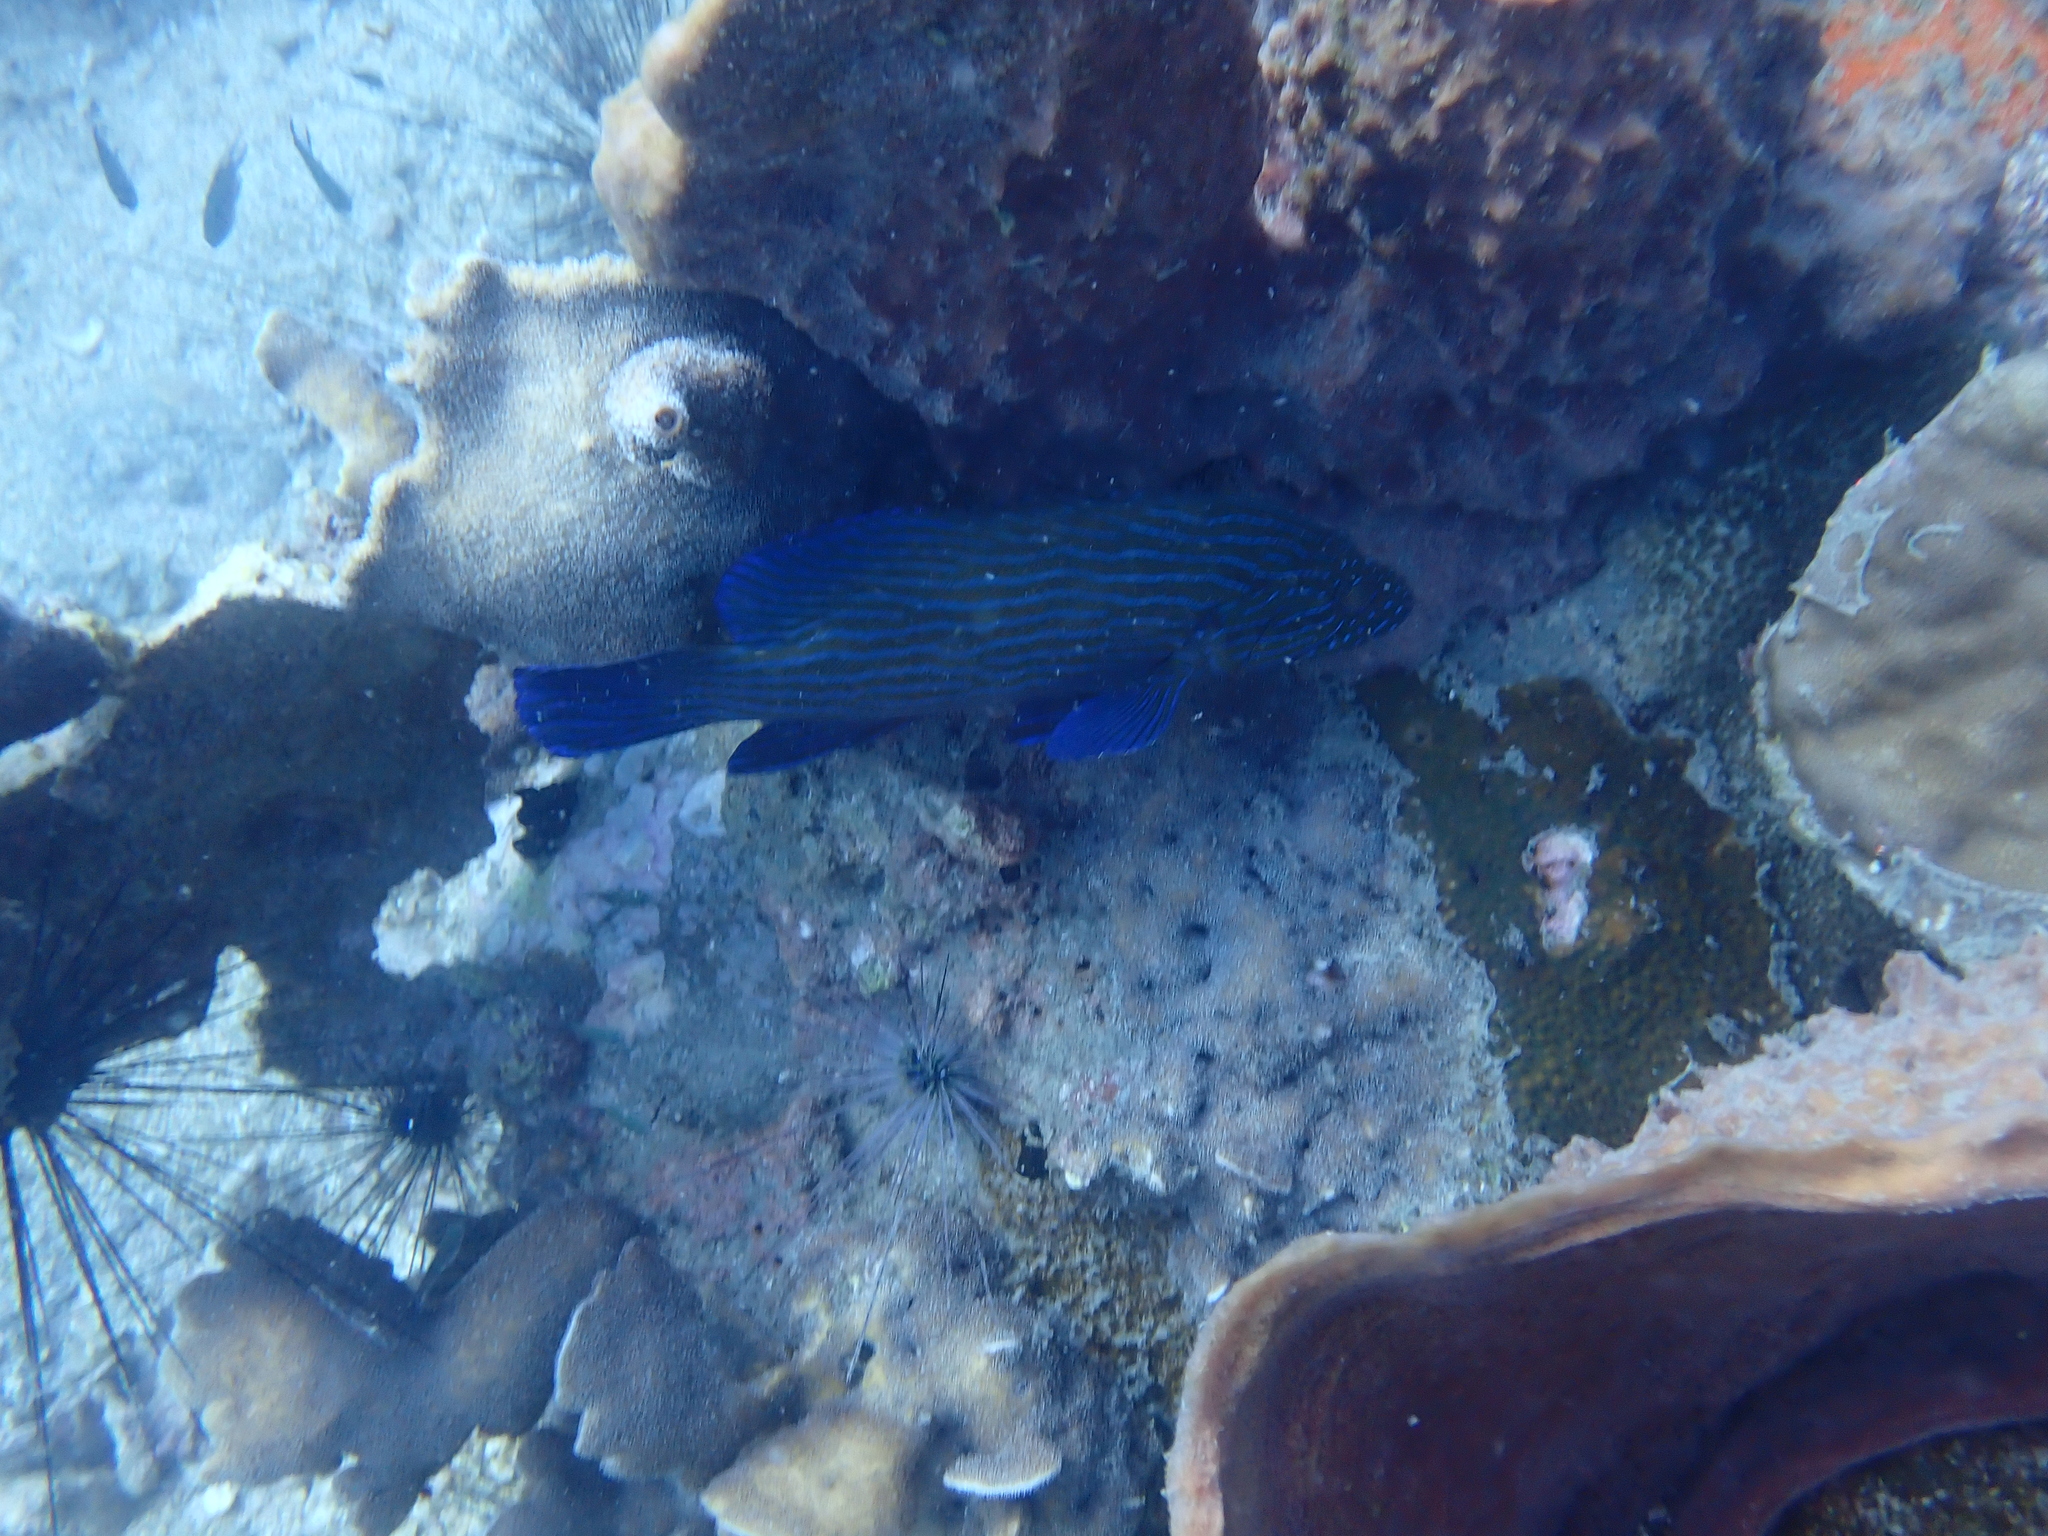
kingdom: Animalia
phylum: Chordata
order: Perciformes
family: Serranidae
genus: Cephalopholis
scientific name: Cephalopholis formosa
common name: Bluelined hind
